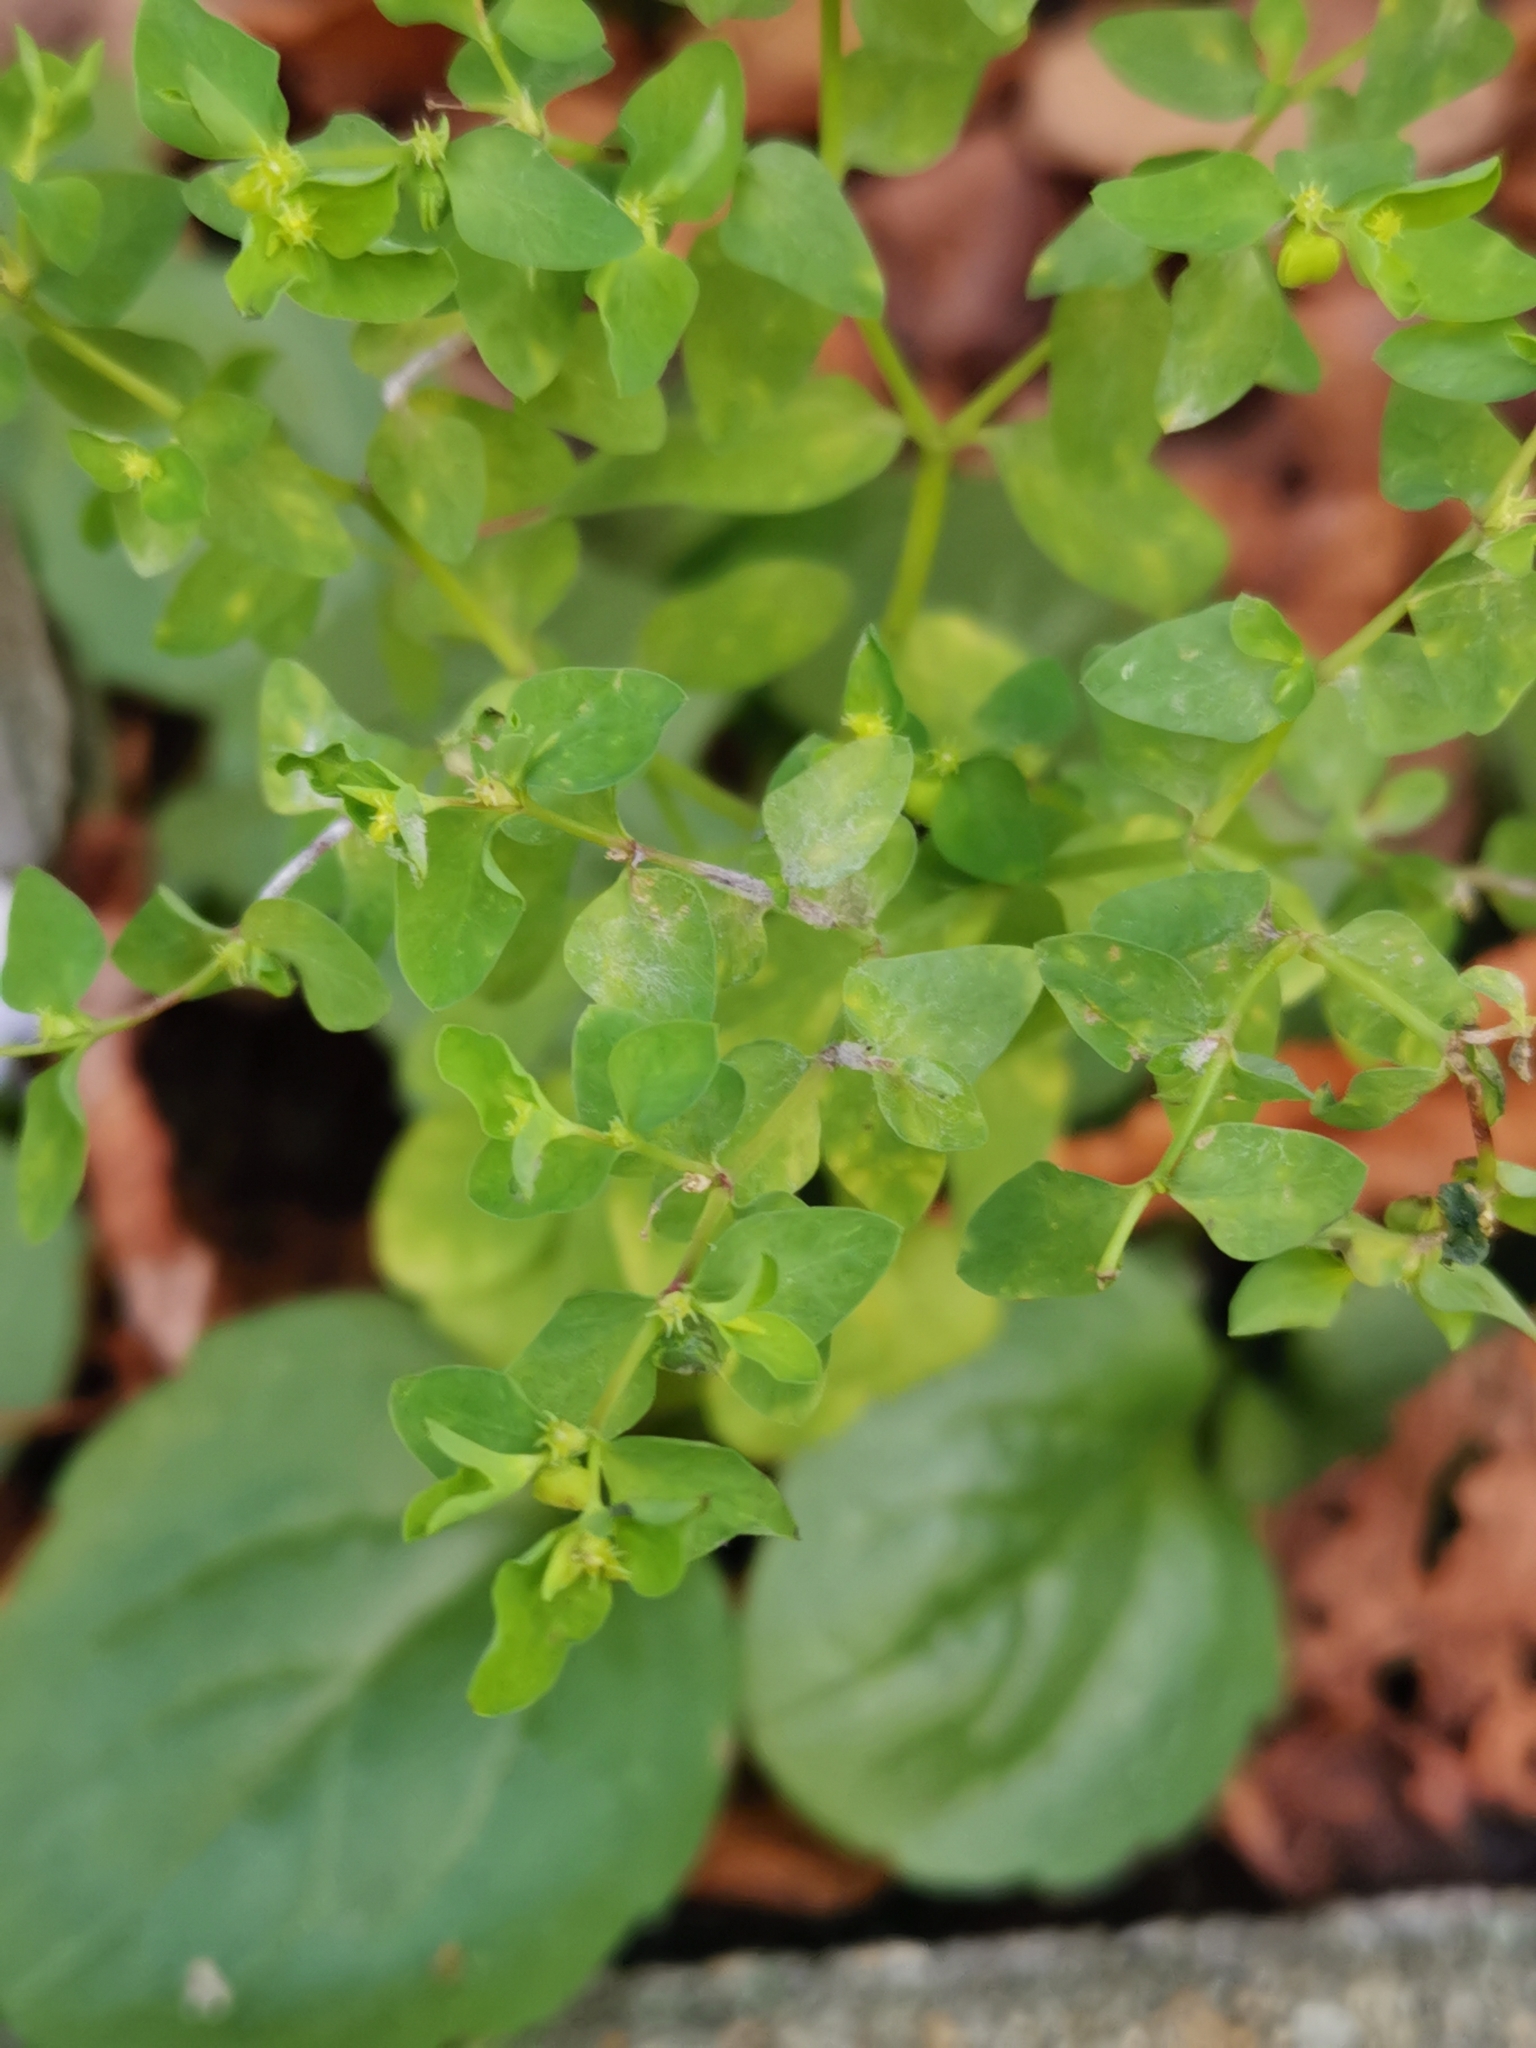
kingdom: Plantae
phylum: Tracheophyta
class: Magnoliopsida
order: Malpighiales
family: Euphorbiaceae
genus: Euphorbia
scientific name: Euphorbia peplus
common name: Petty spurge
